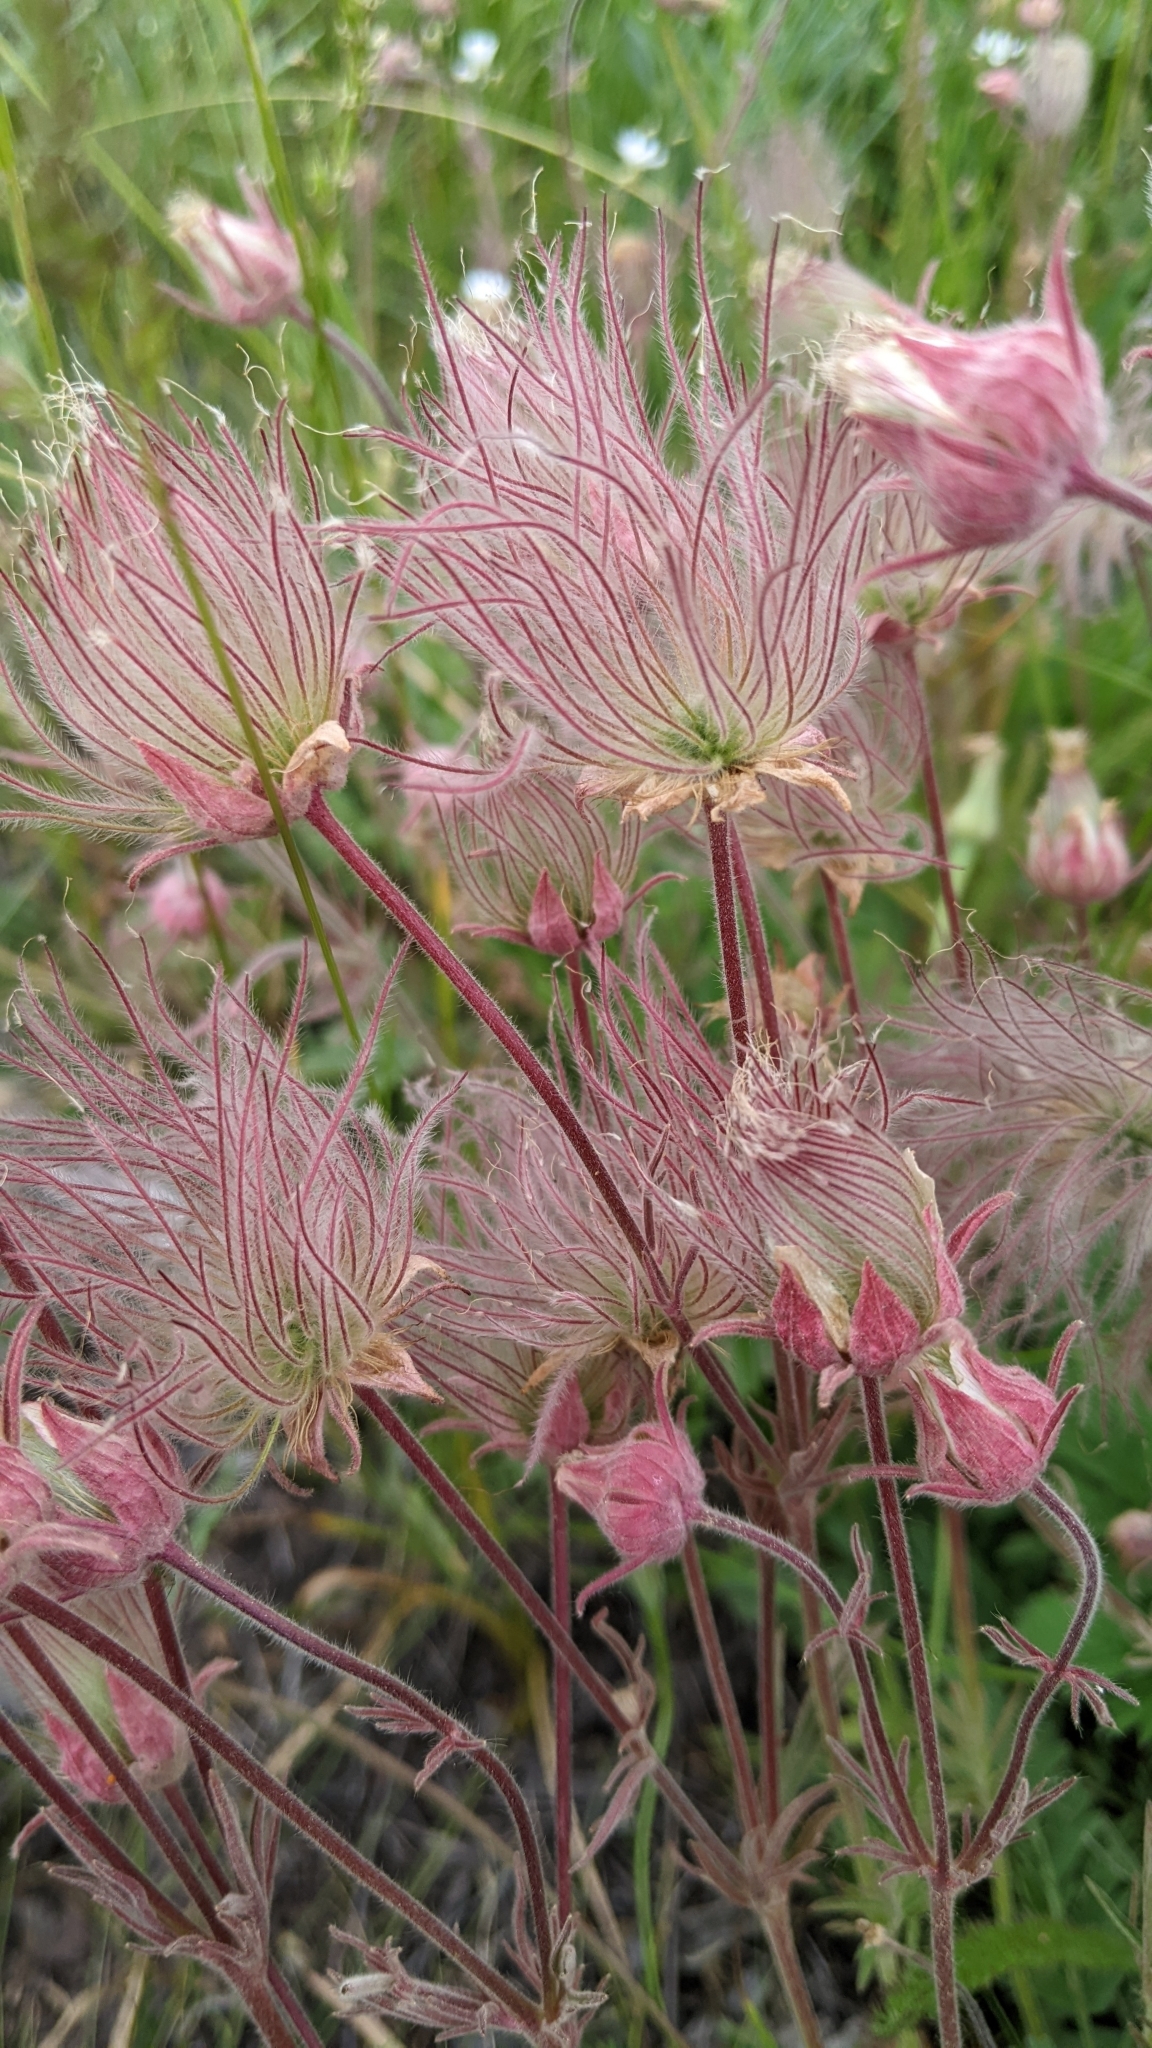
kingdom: Plantae
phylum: Tracheophyta
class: Magnoliopsida
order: Rosales
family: Rosaceae
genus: Geum
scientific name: Geum triflorum
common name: Old man's whiskers
